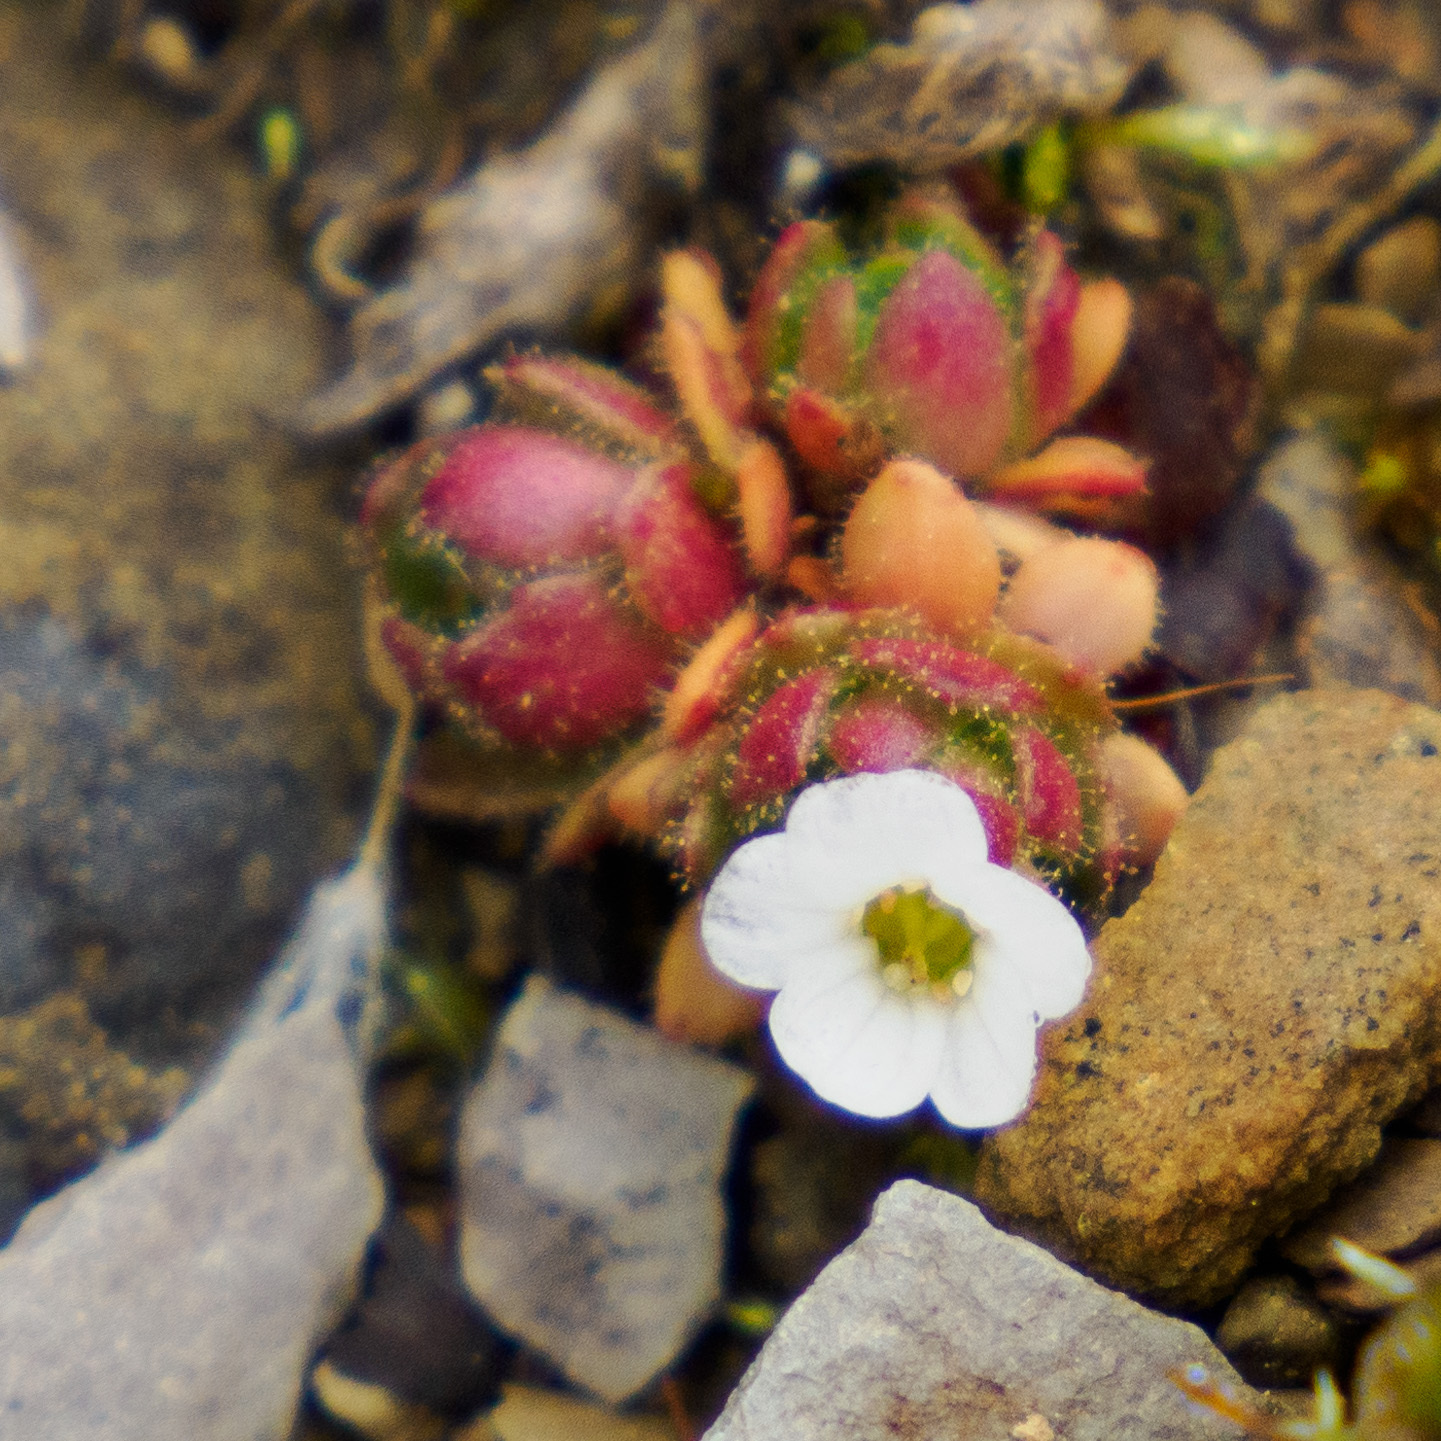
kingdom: Plantae
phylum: Tracheophyta
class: Magnoliopsida
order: Saxifragales
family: Saxifragaceae
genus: Saxifraga
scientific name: Saxifraga adscendens
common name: Ascending saxifrage
